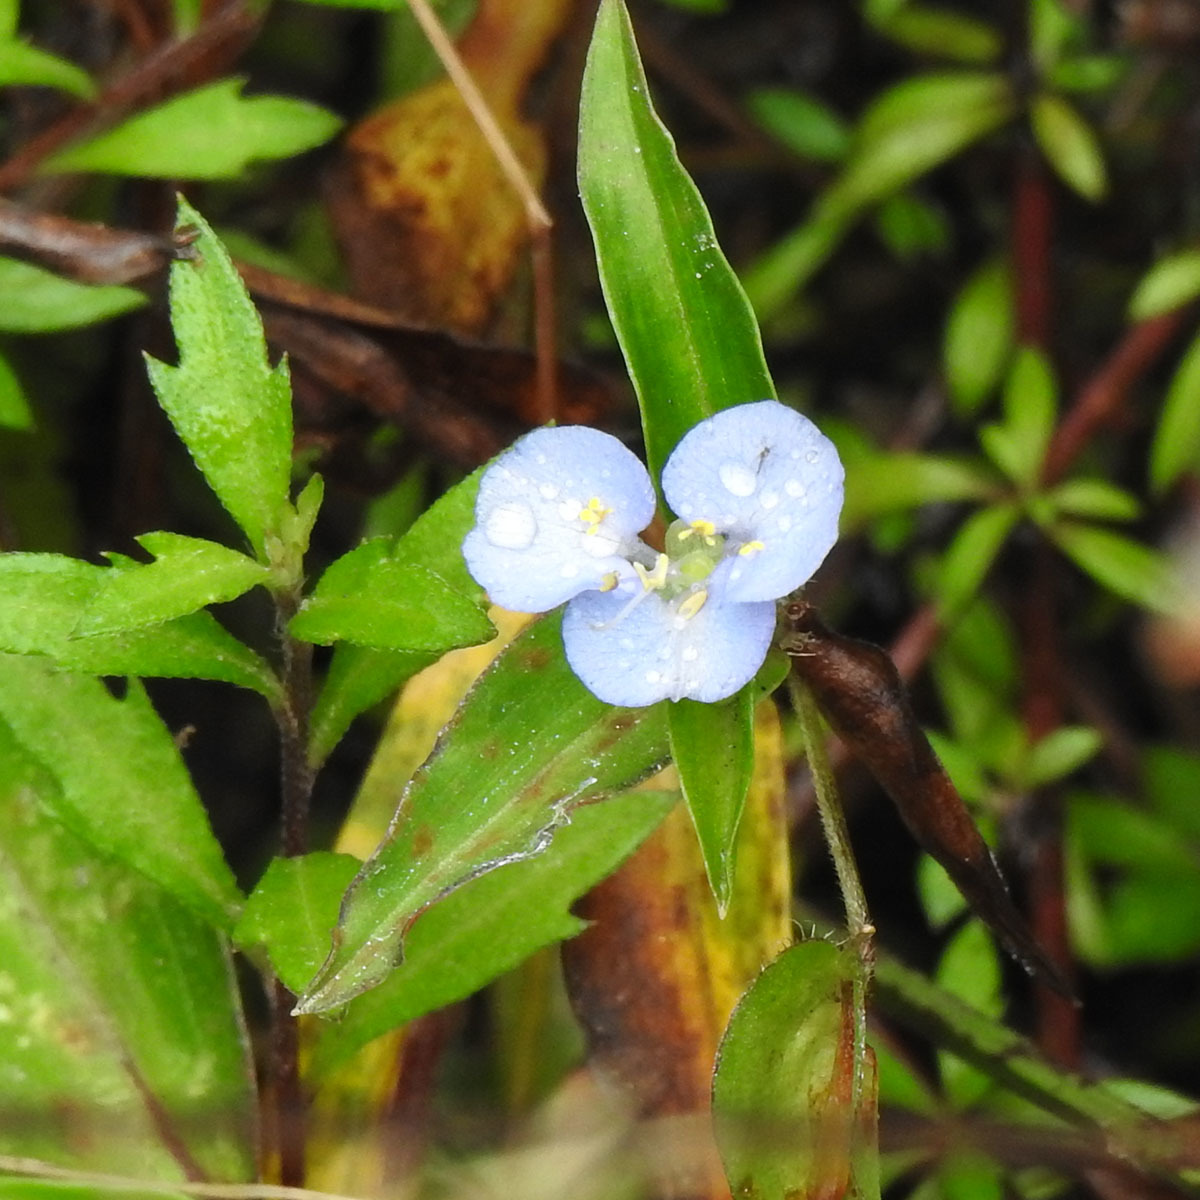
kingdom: Plantae
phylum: Tracheophyta
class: Liliopsida
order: Commelinales
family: Commelinaceae
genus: Commelina
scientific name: Commelina clavata
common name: Willow leaved dayflower
